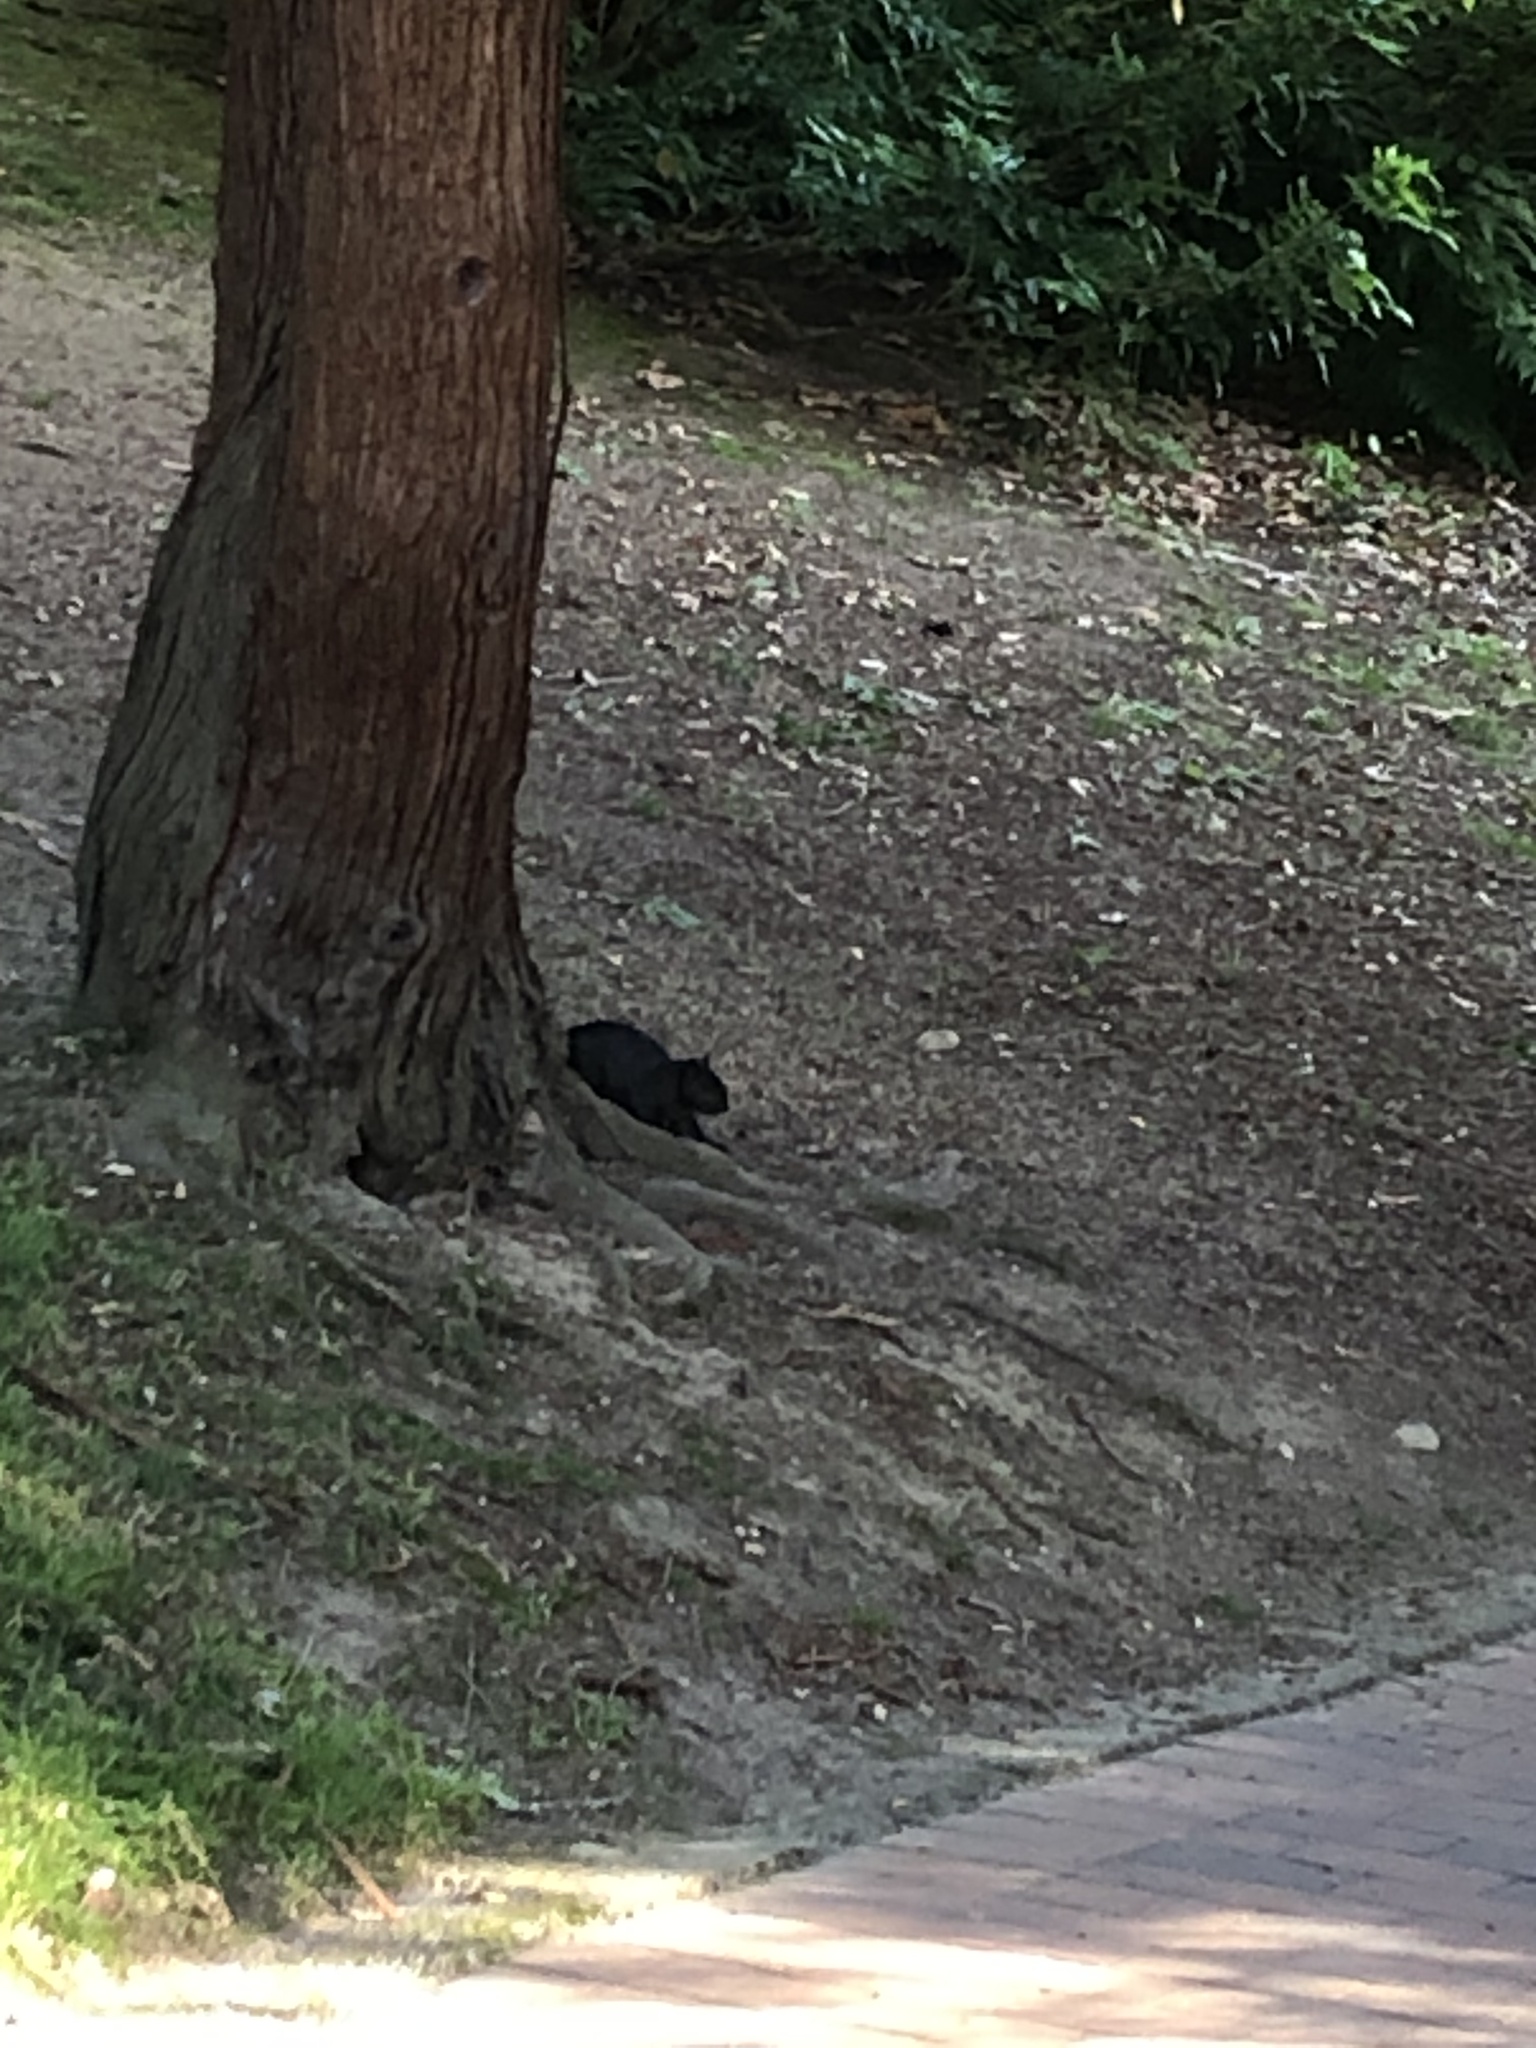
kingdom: Animalia
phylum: Chordata
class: Mammalia
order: Rodentia
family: Sciuridae
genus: Sciurus
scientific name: Sciurus carolinensis
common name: Eastern gray squirrel
